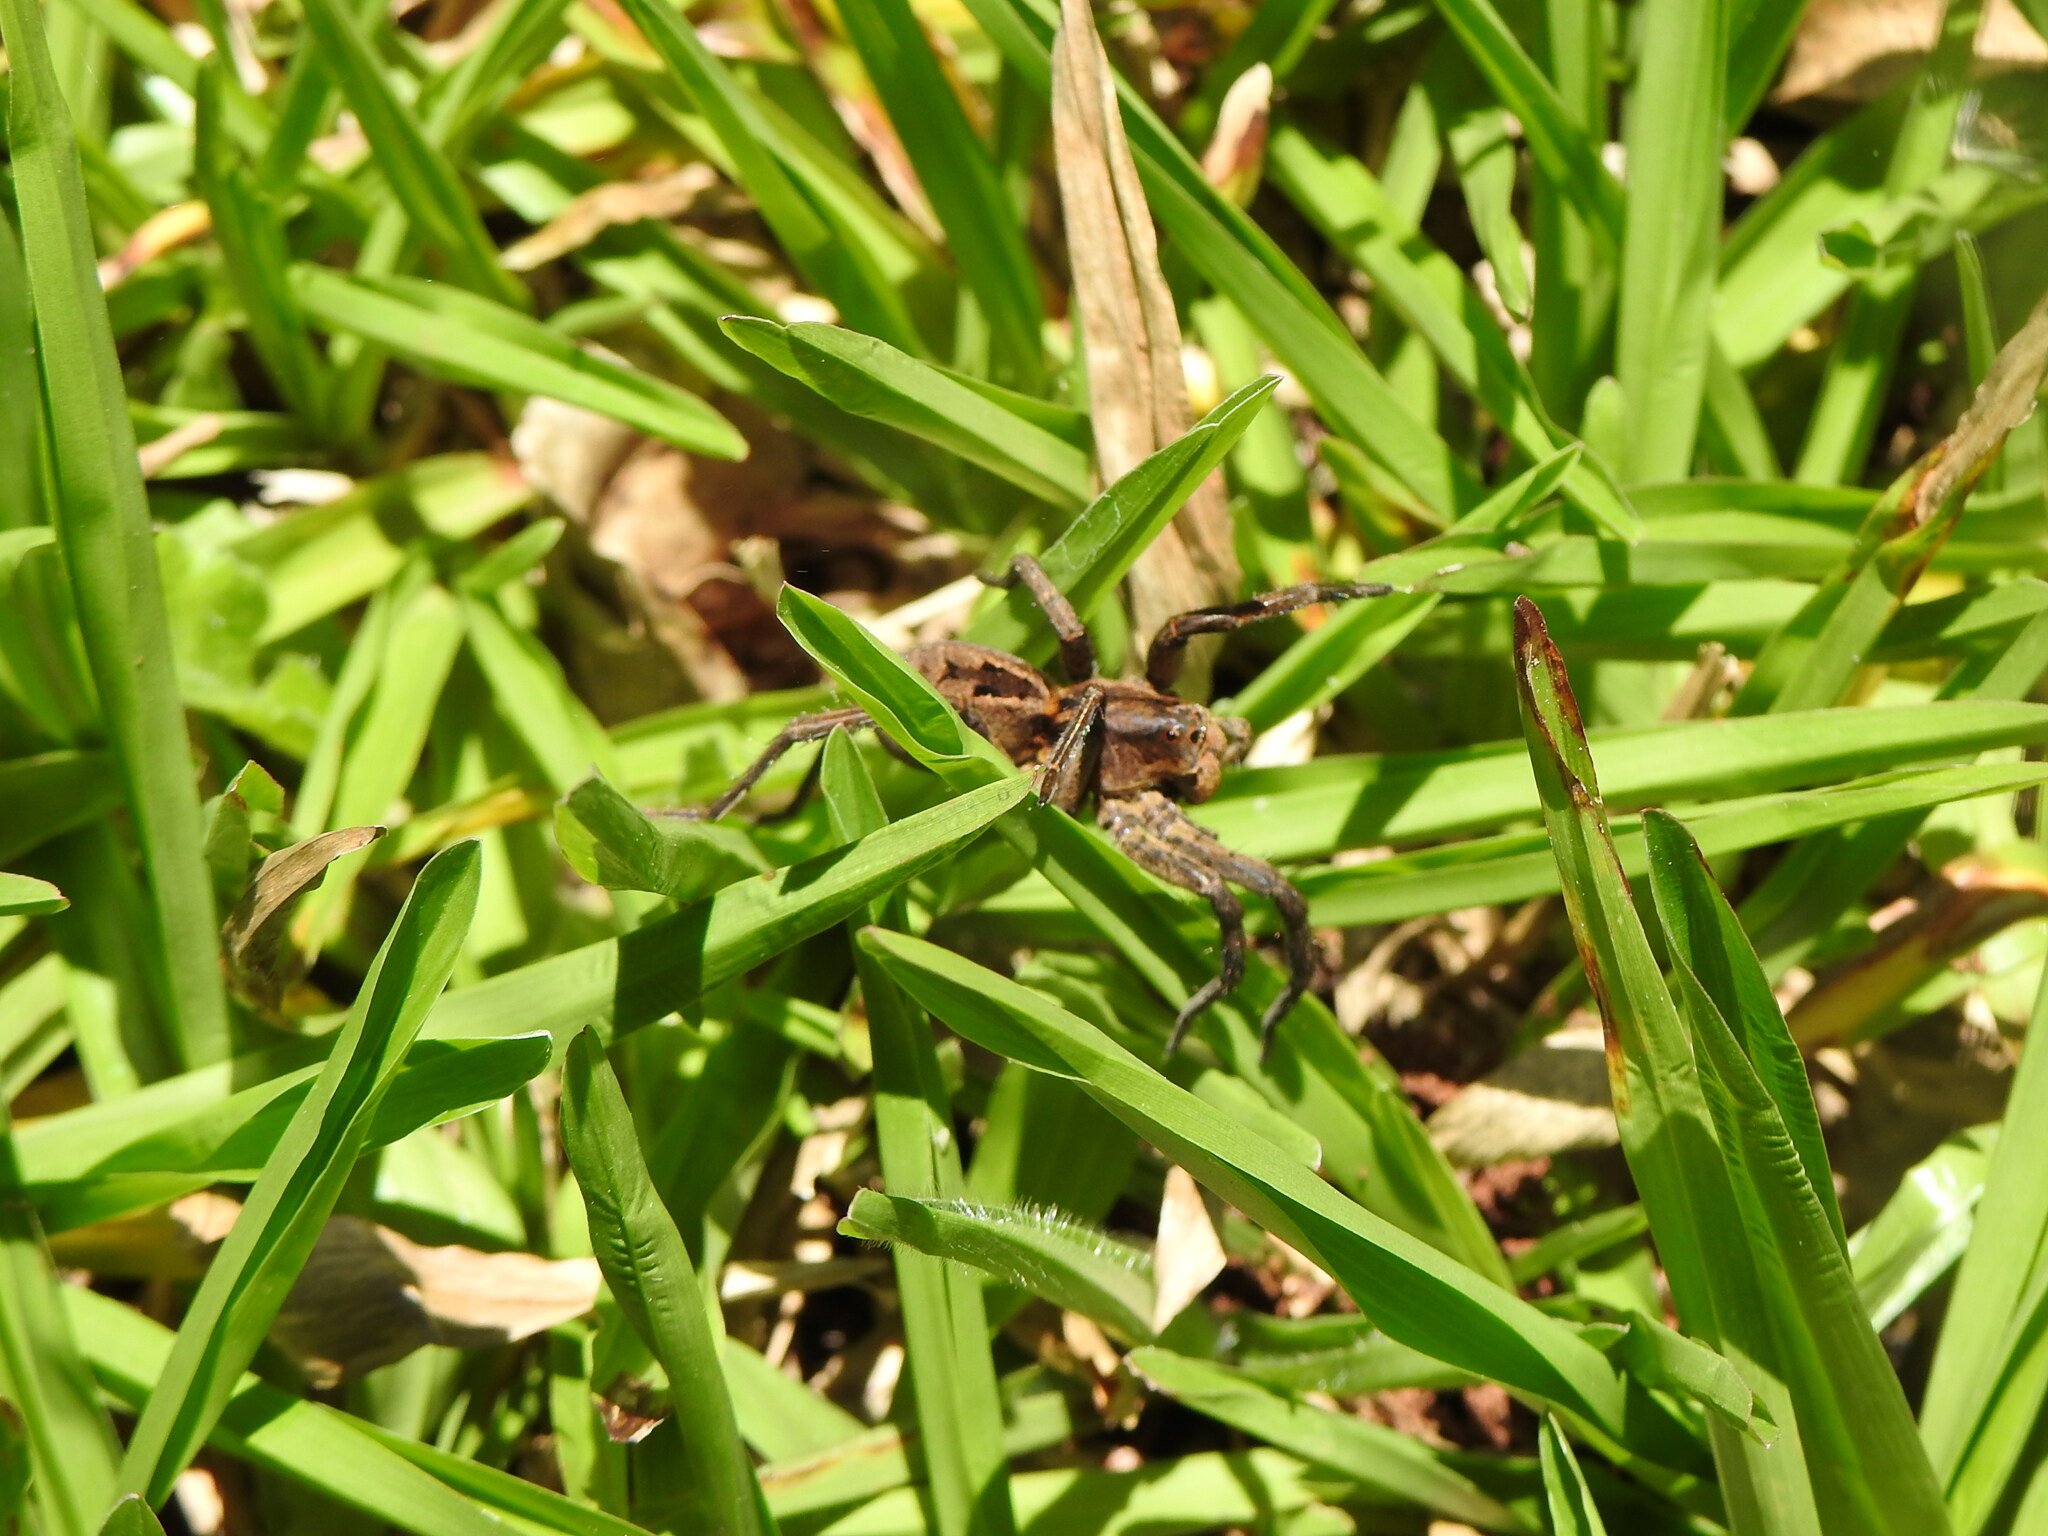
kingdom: Animalia
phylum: Arthropoda
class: Arachnida
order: Araneae
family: Lycosidae
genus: Lycosa
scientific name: Lycosa erythrognatha
